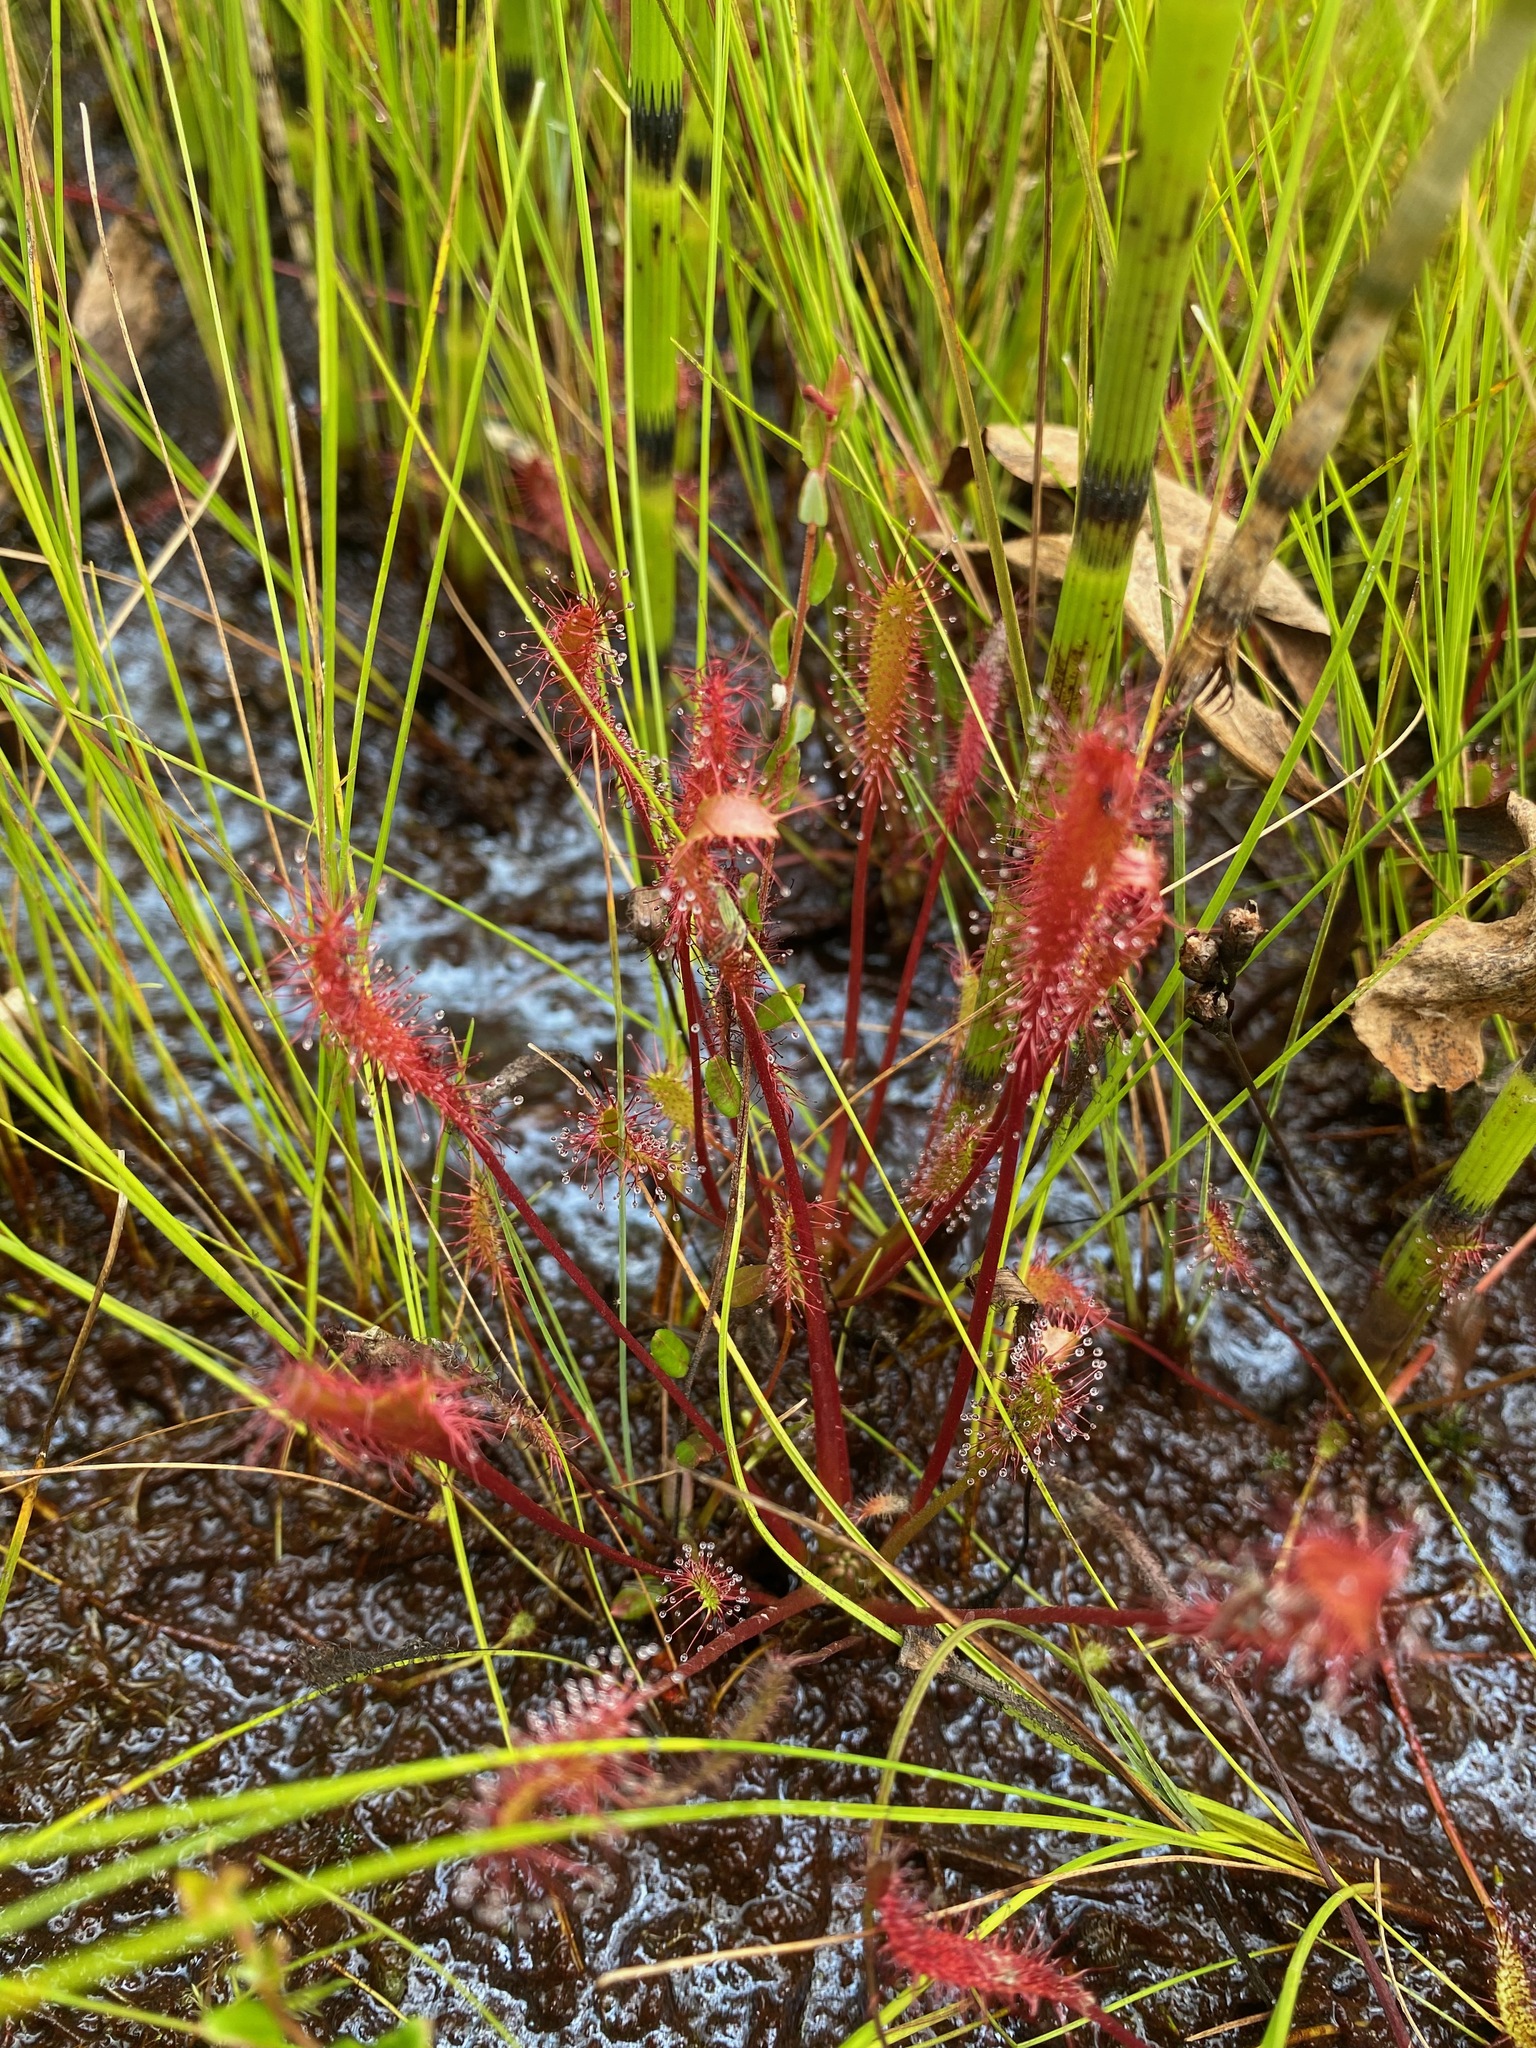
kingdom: Plantae
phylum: Tracheophyta
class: Magnoliopsida
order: Caryophyllales
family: Droseraceae
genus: Drosera
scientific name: Drosera anglica
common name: Great sundew
